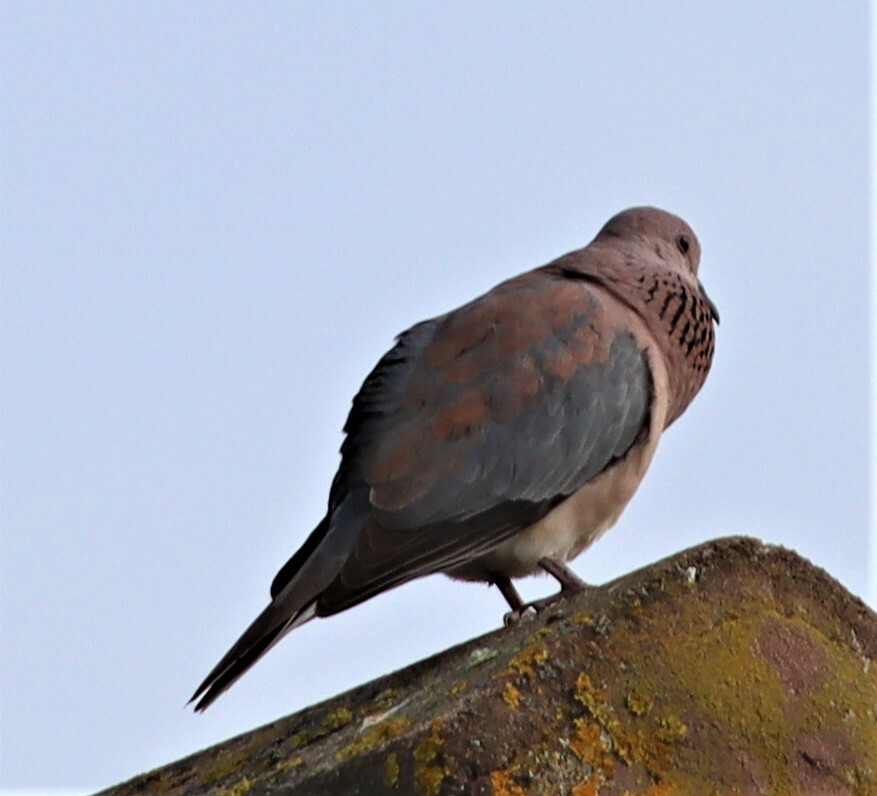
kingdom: Animalia
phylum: Chordata
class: Aves
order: Columbiformes
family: Columbidae
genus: Spilopelia
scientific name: Spilopelia senegalensis
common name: Laughing dove
